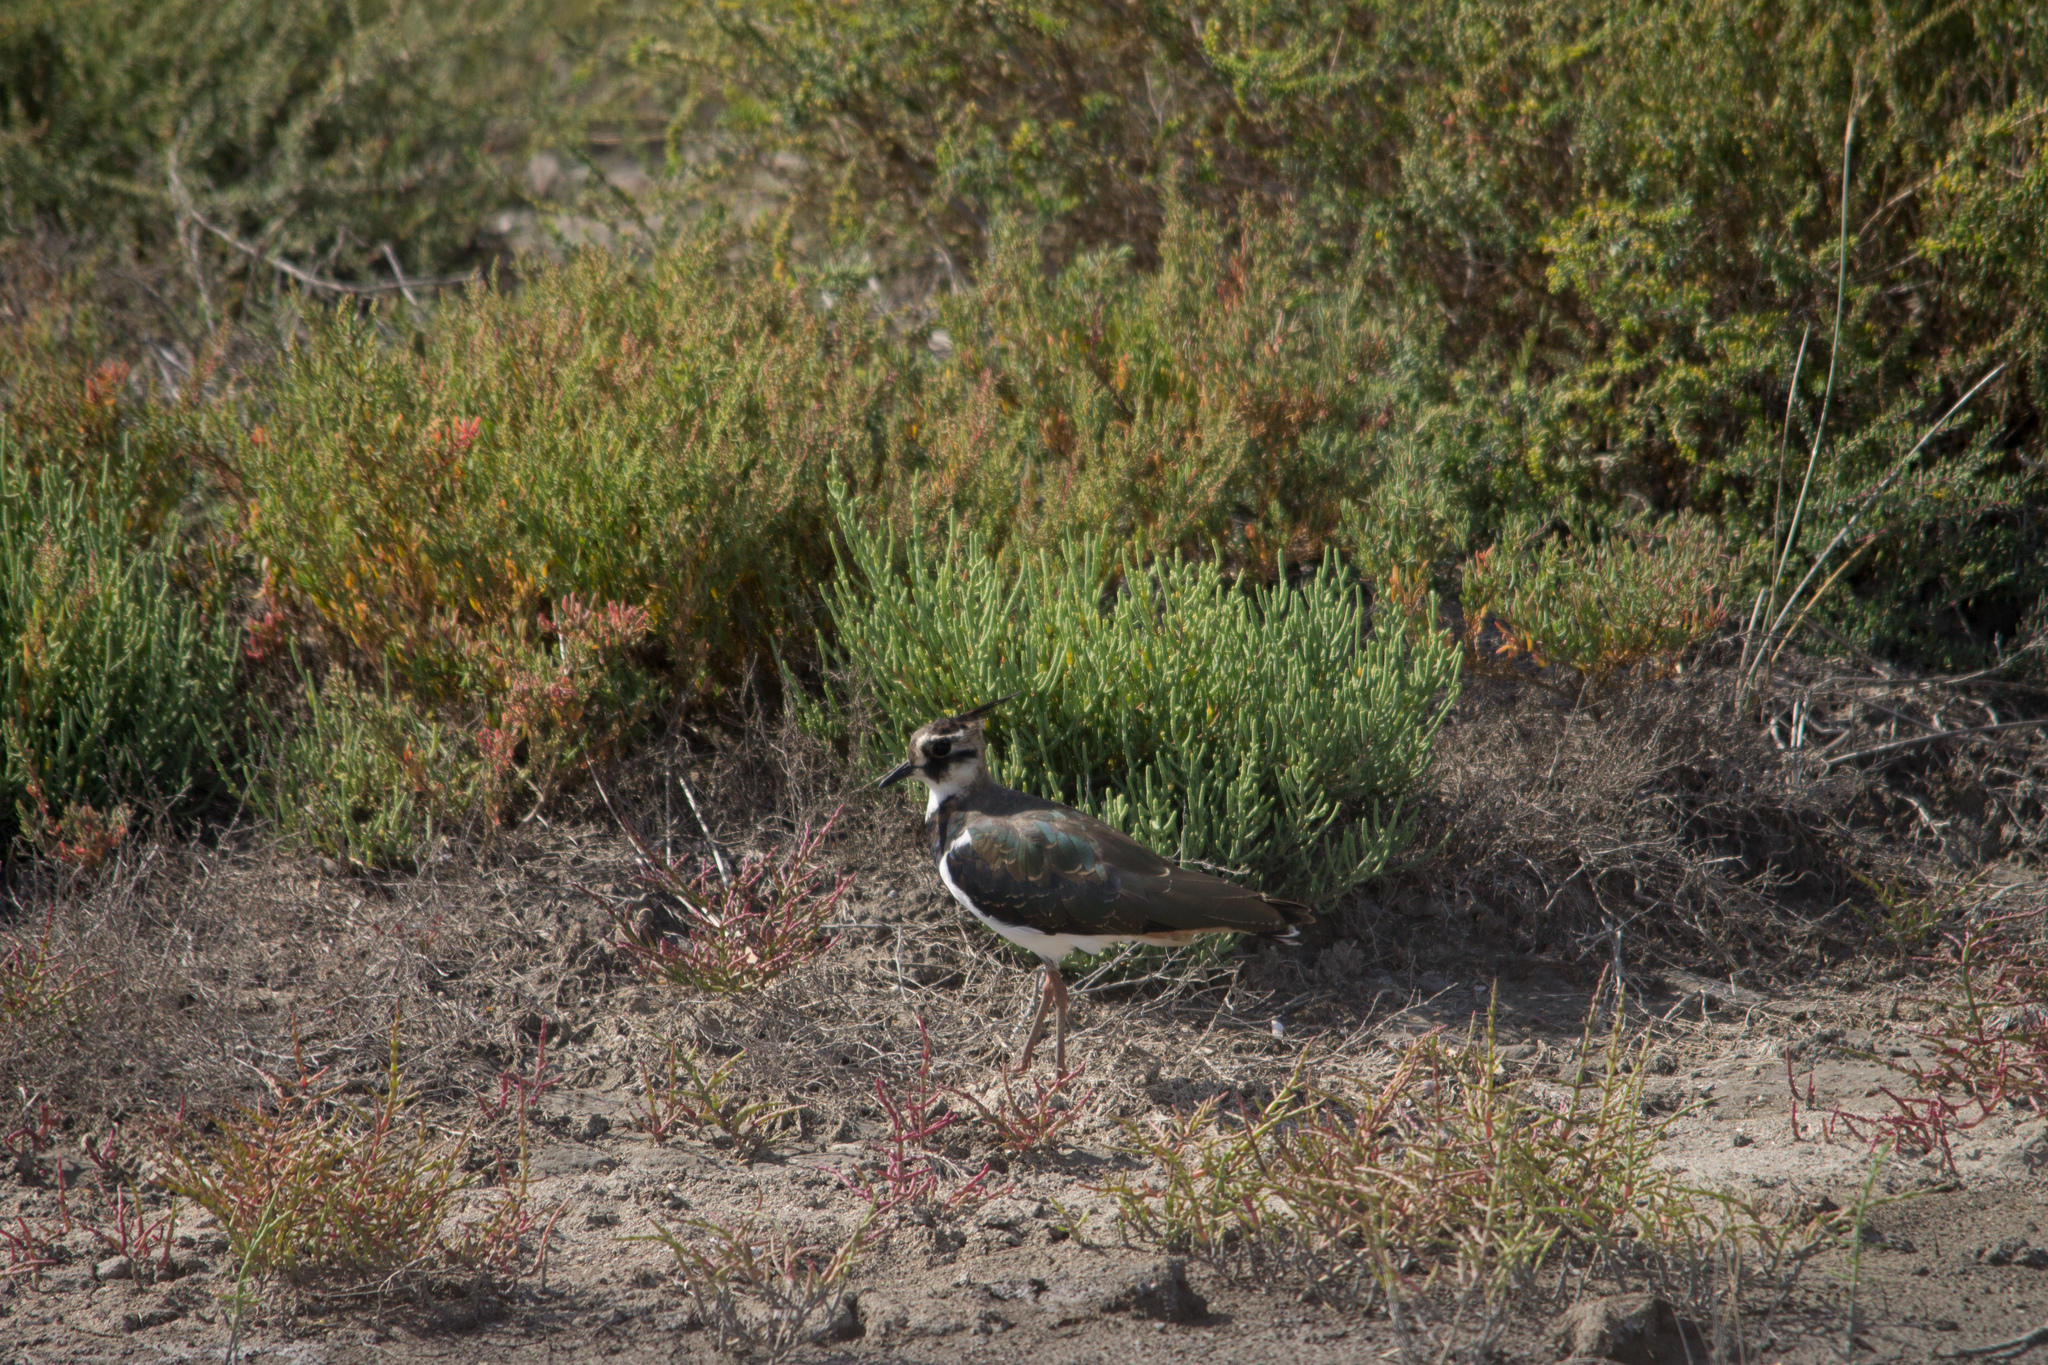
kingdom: Animalia
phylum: Chordata
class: Aves
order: Charadriiformes
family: Charadriidae
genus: Vanellus
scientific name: Vanellus vanellus
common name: Northern lapwing
